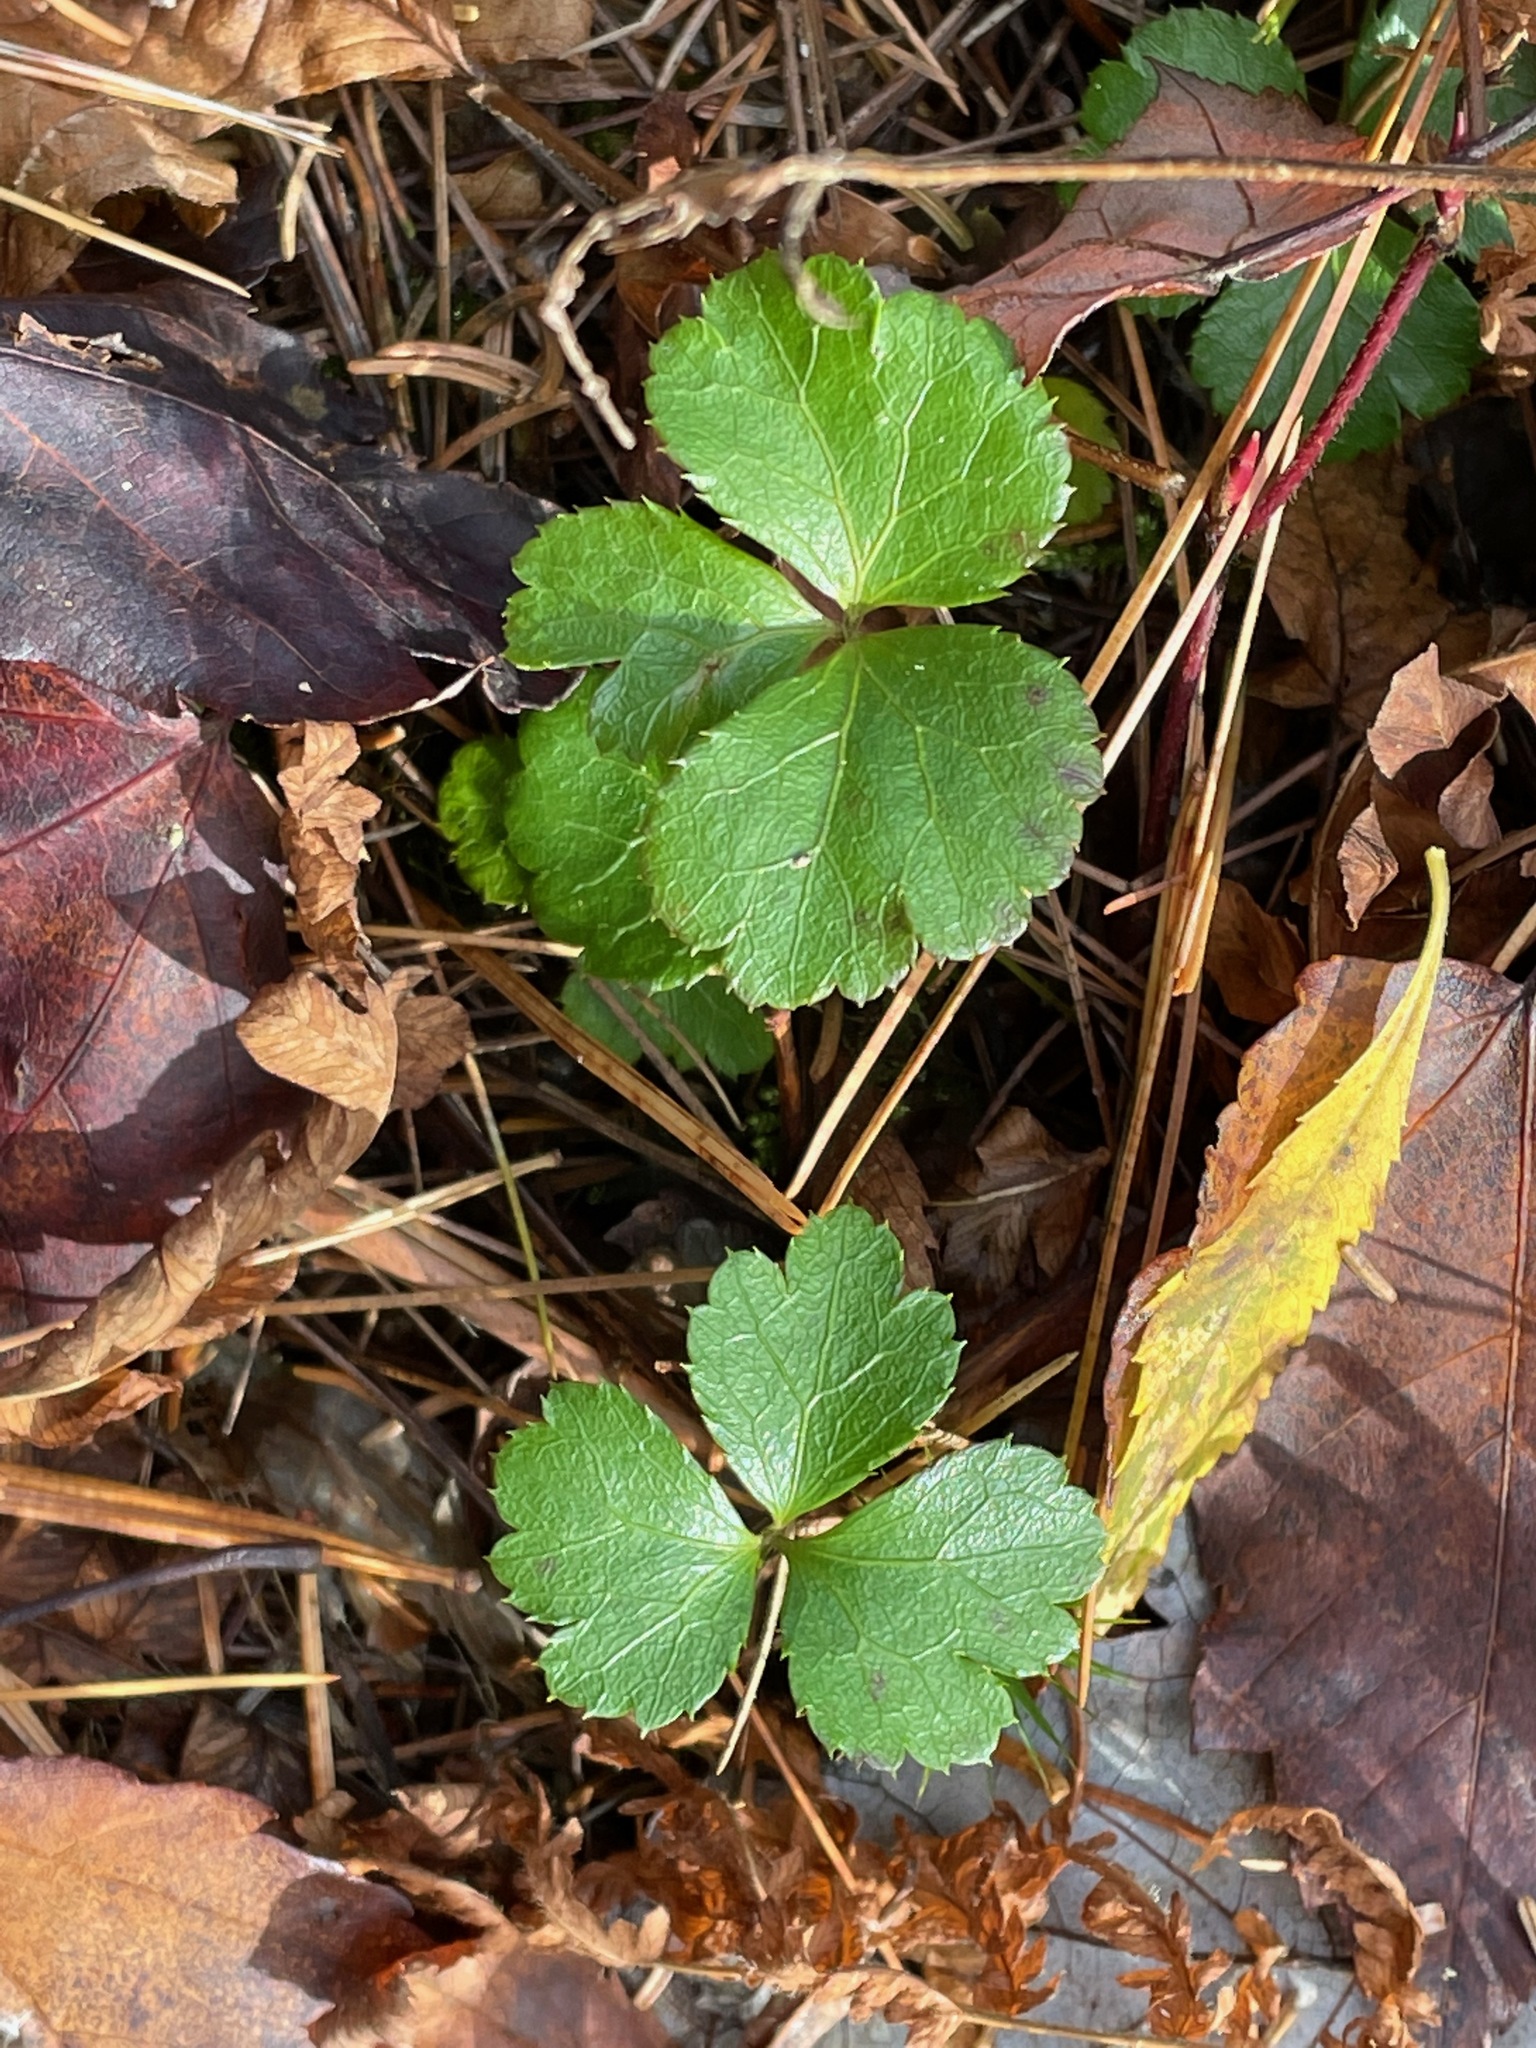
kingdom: Plantae
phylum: Tracheophyta
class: Magnoliopsida
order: Ranunculales
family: Ranunculaceae
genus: Coptis
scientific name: Coptis trifolia
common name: Canker-root
